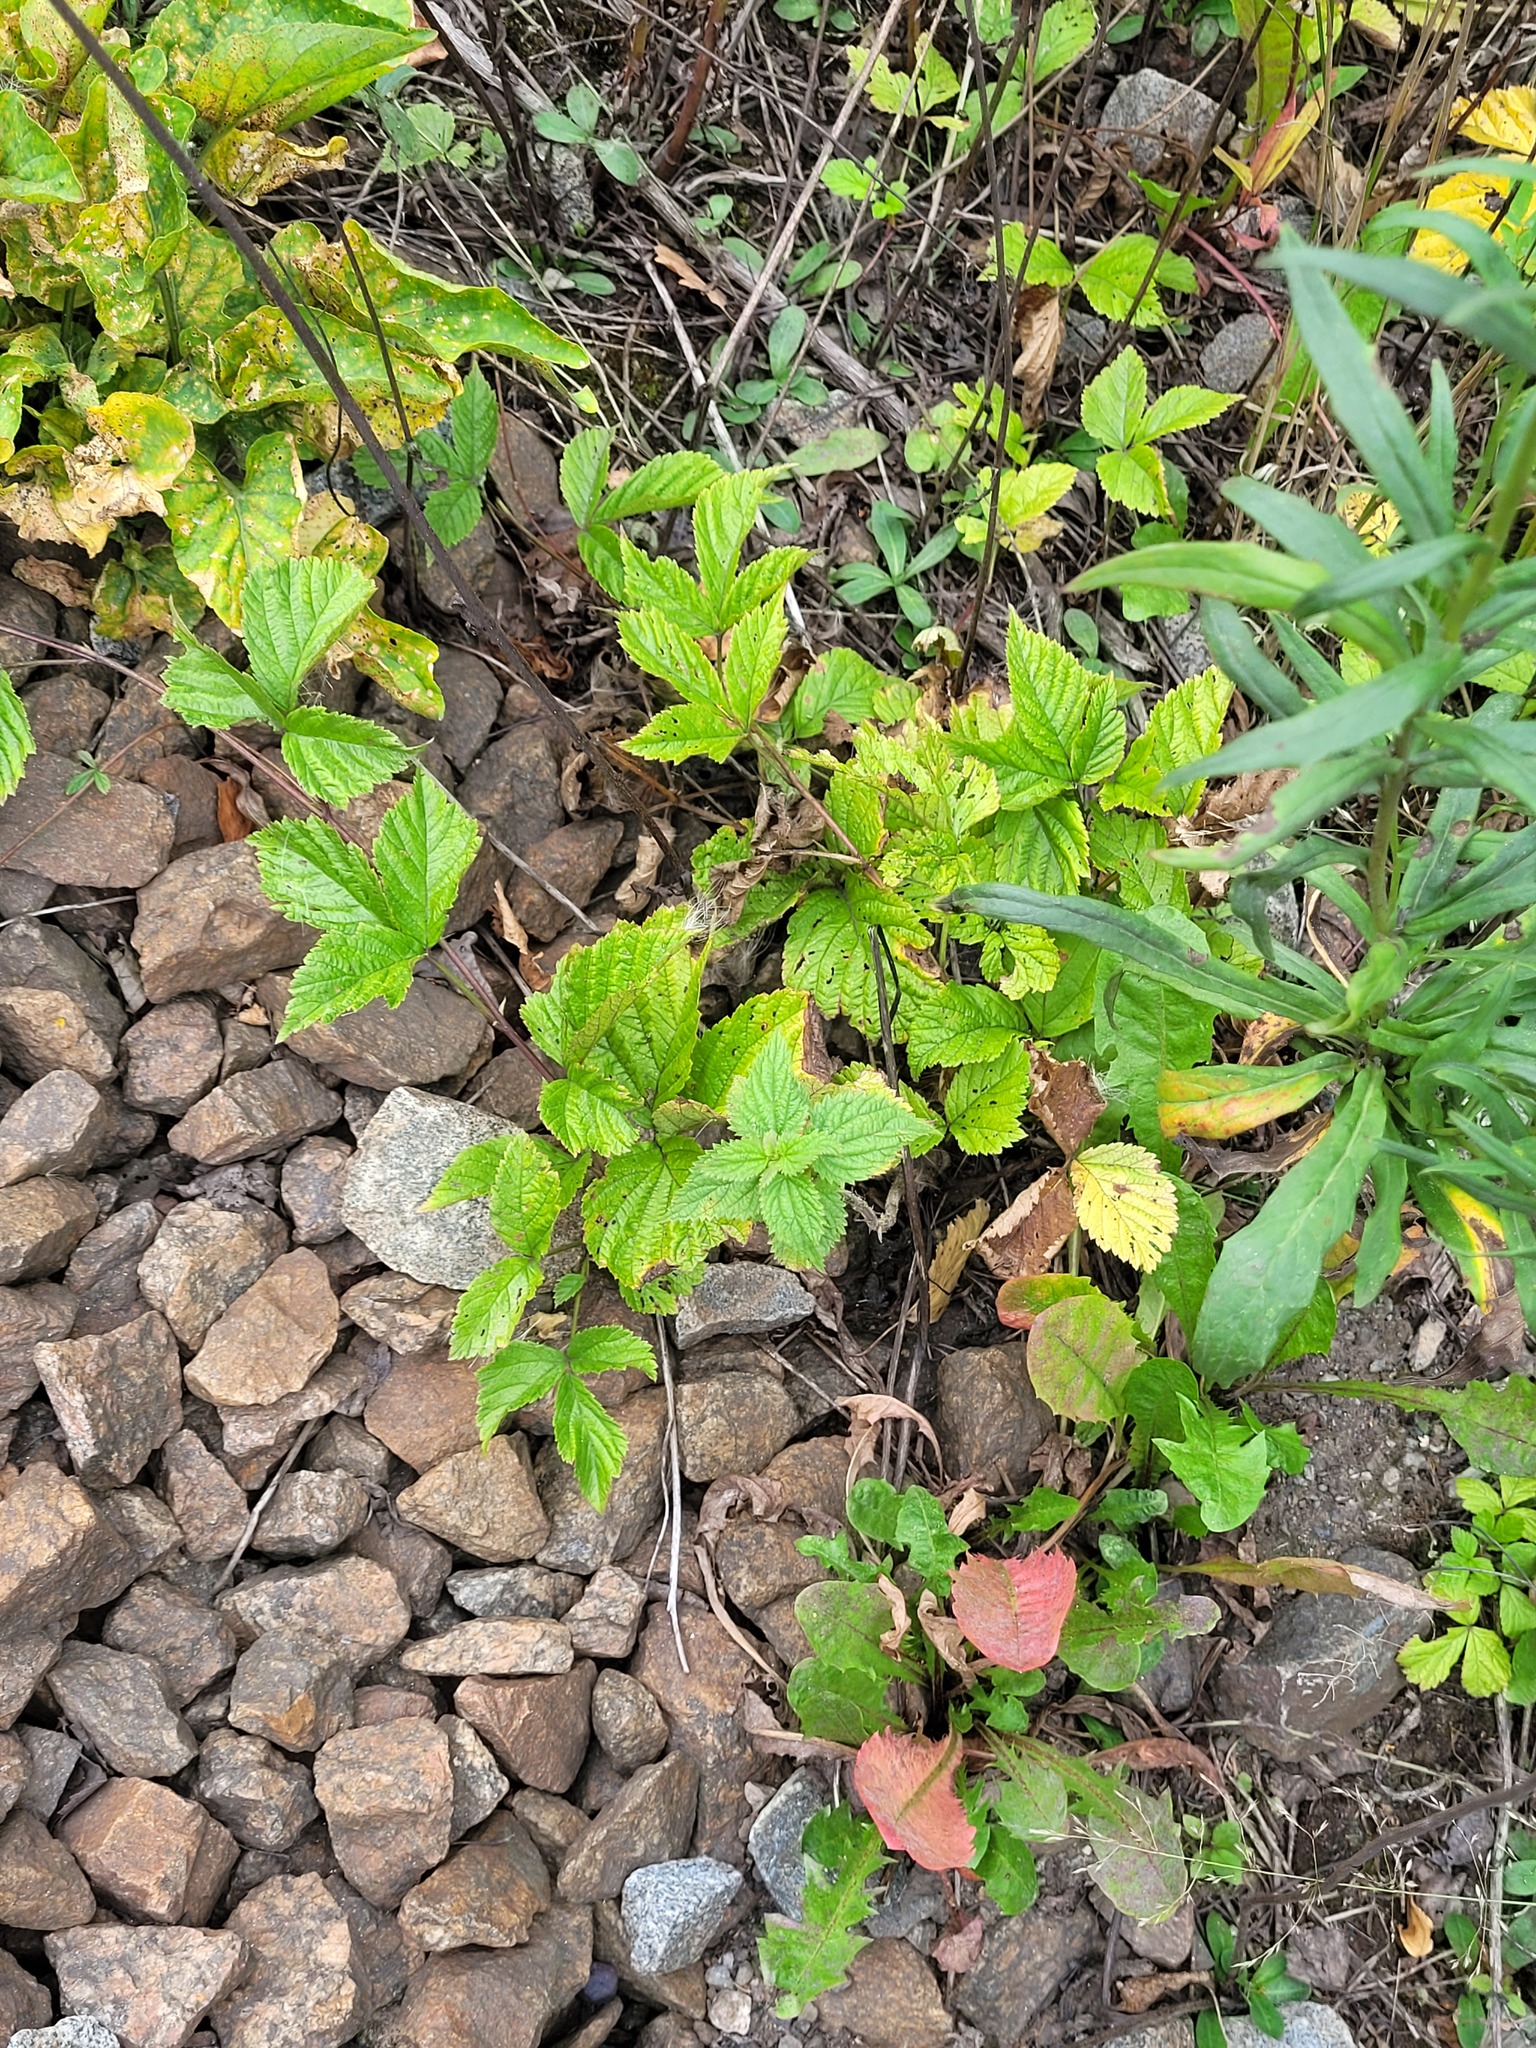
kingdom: Plantae
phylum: Tracheophyta
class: Magnoliopsida
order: Rosales
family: Rosaceae
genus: Rubus
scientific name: Rubus saxatilis
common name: Stone bramble
